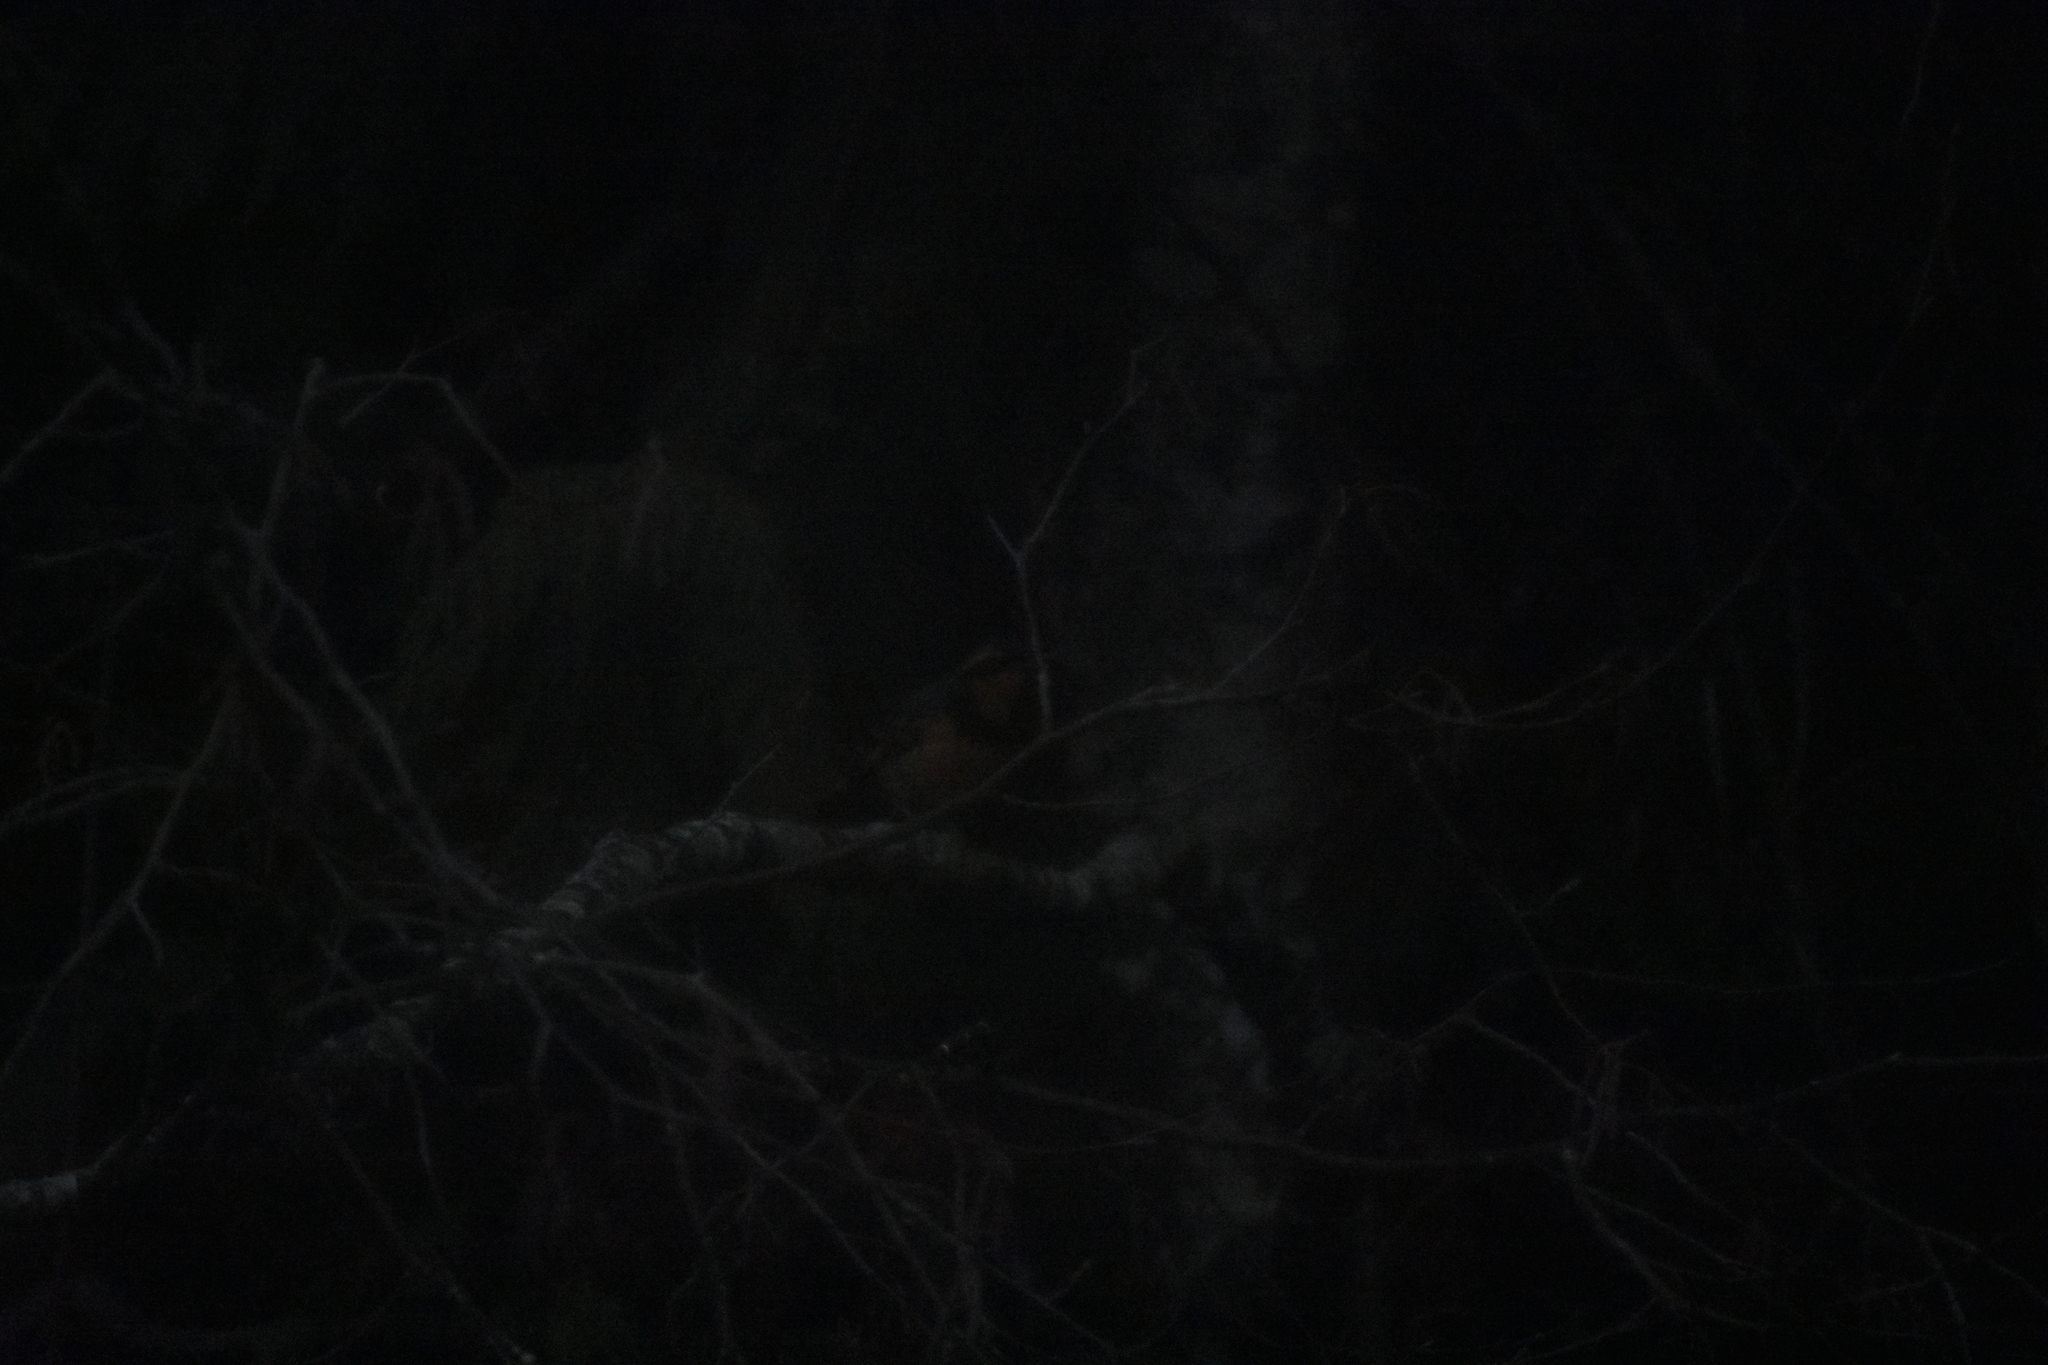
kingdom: Animalia
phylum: Chordata
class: Aves
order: Passeriformes
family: Turdidae
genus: Ixoreus
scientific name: Ixoreus naevius
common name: Varied thrush
